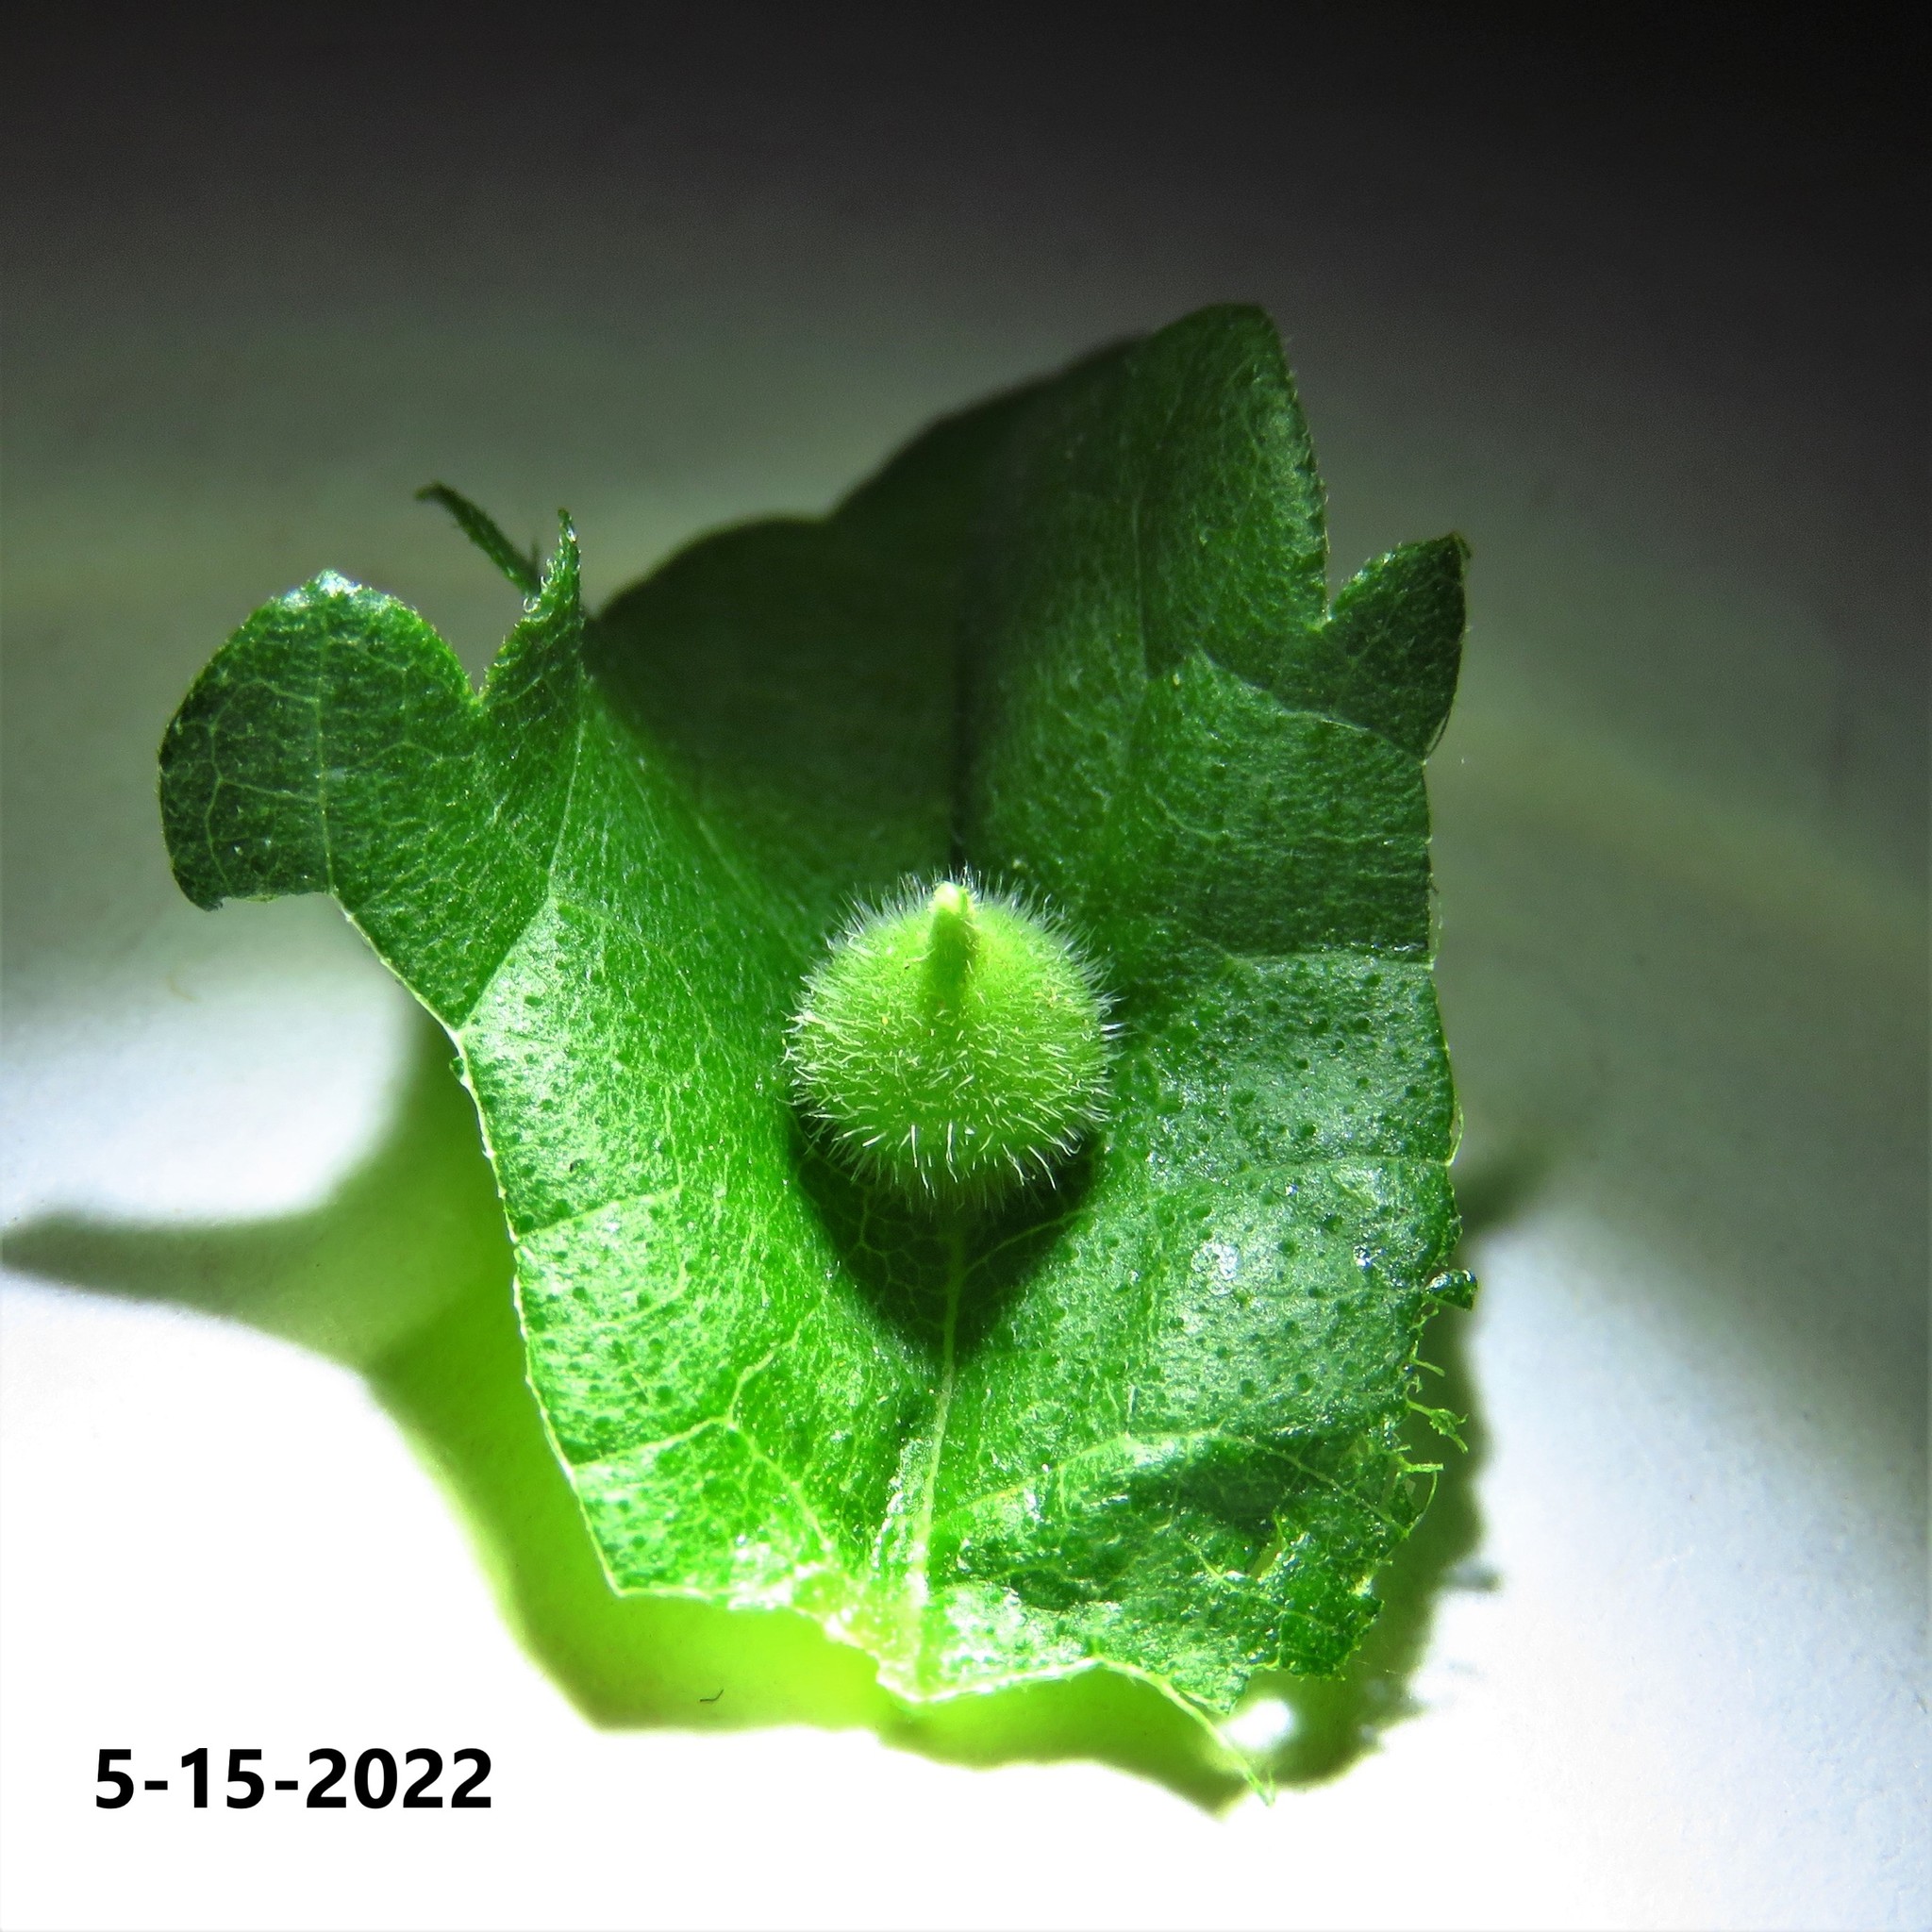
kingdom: Animalia
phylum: Arthropoda
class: Insecta
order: Diptera
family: Cecidomyiidae
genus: Celticecis
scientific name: Celticecis celtiphyllia
